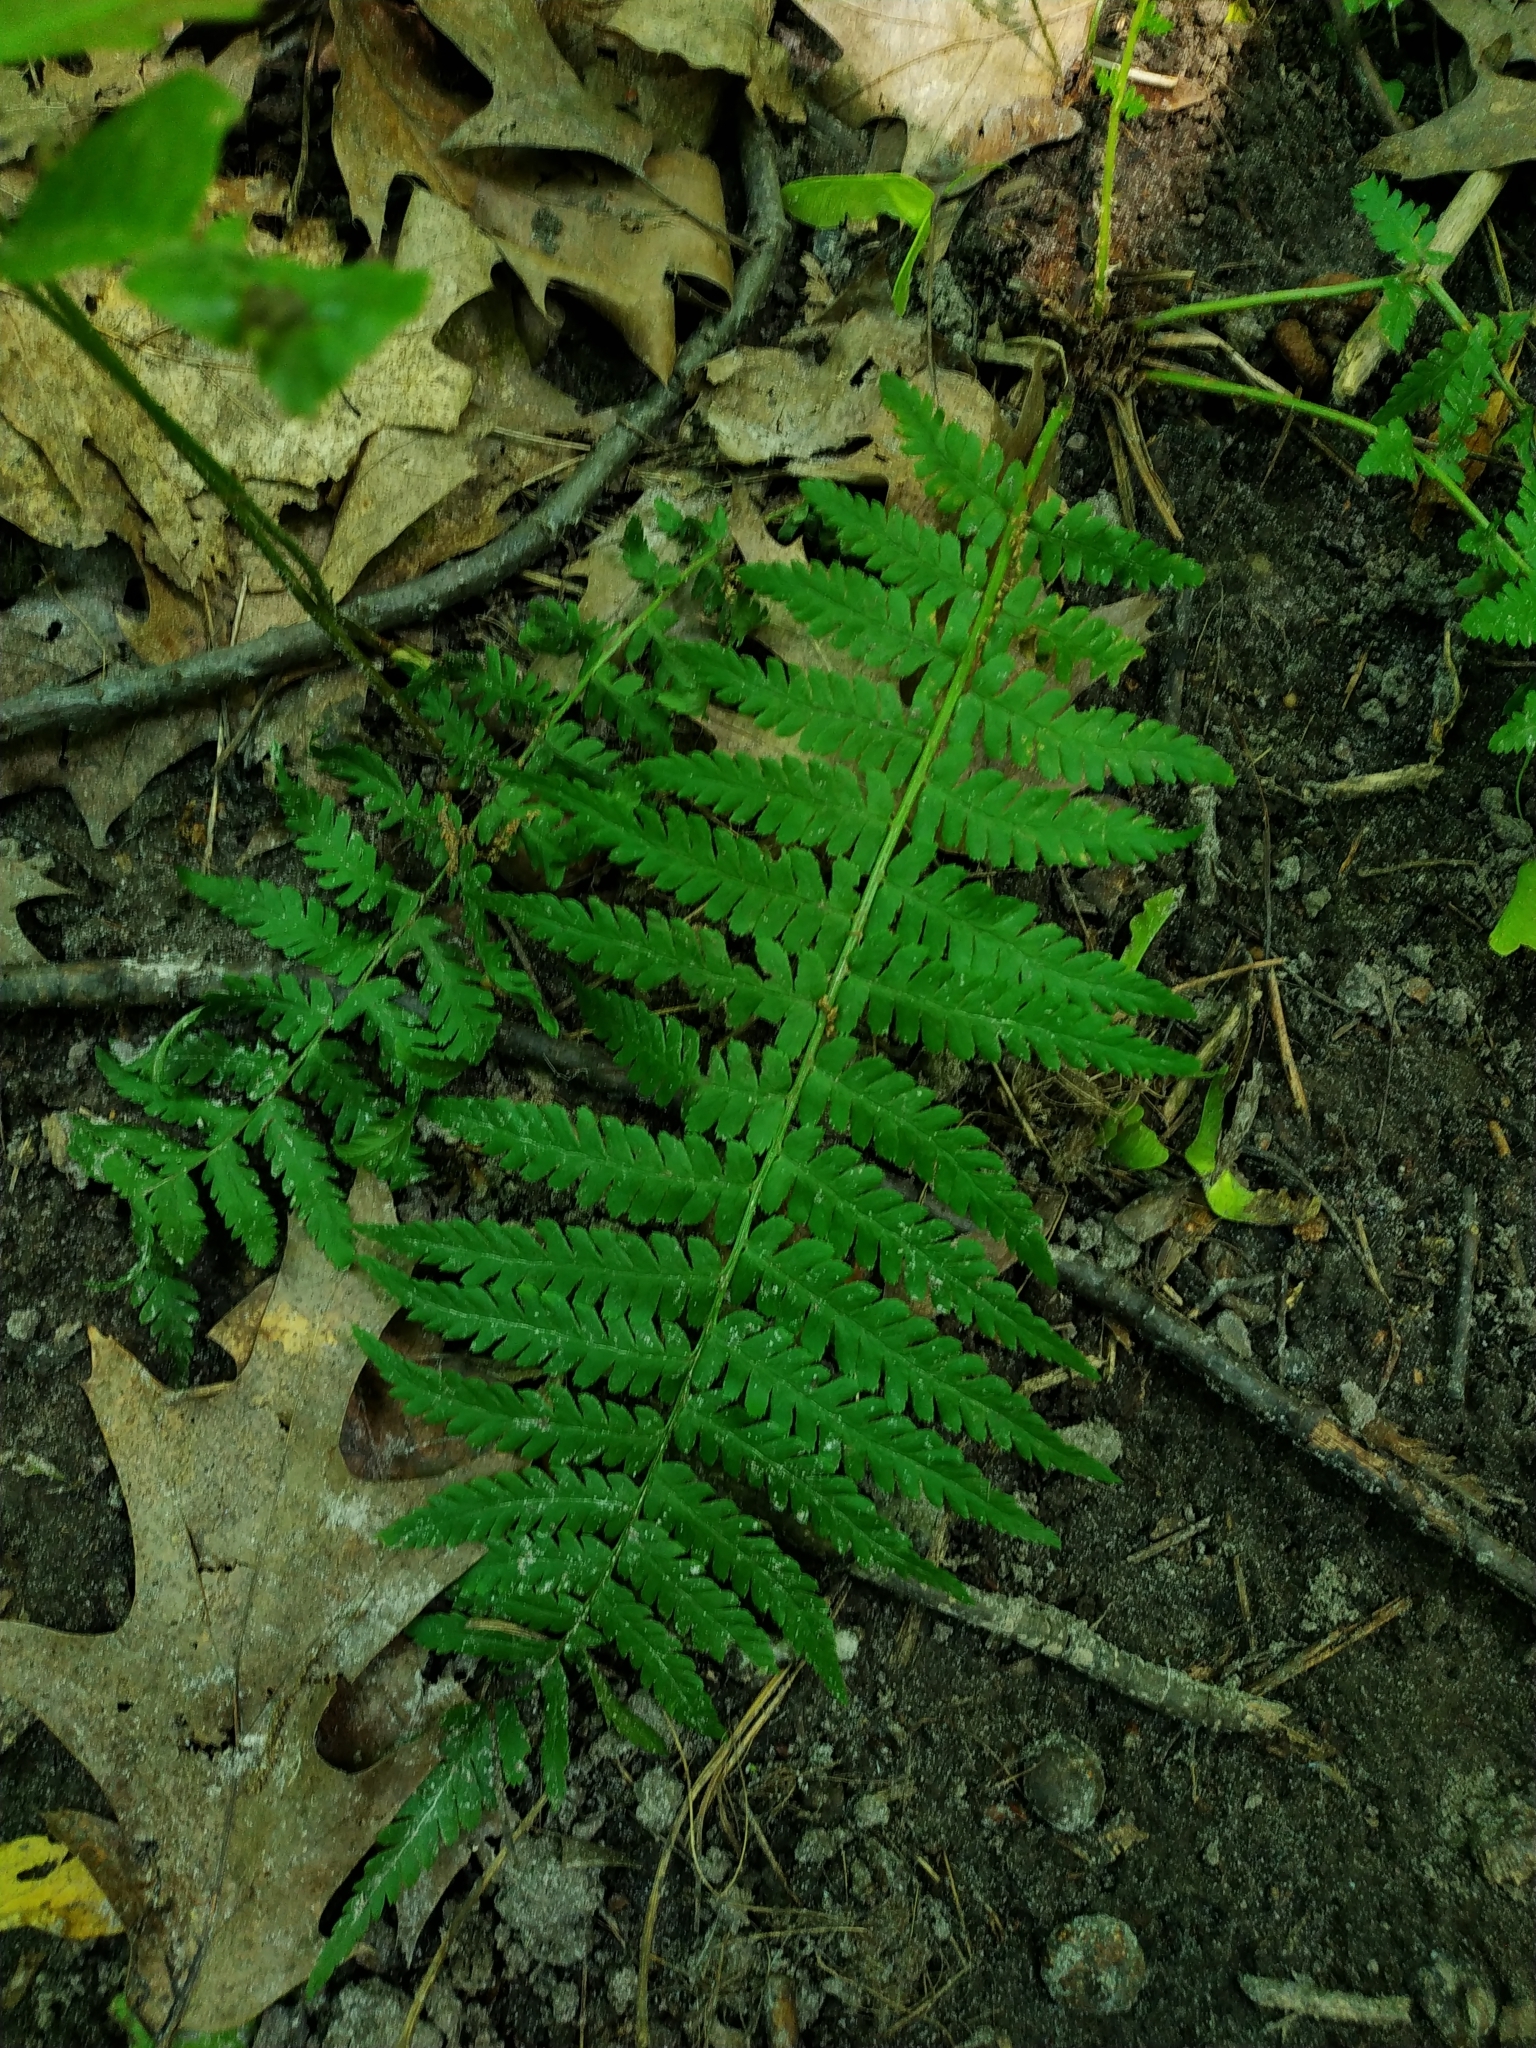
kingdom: Plantae
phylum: Tracheophyta
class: Polypodiopsida
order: Polypodiales
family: Dryopteridaceae
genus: Dryopteris
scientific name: Dryopteris filix-mas
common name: Male fern
